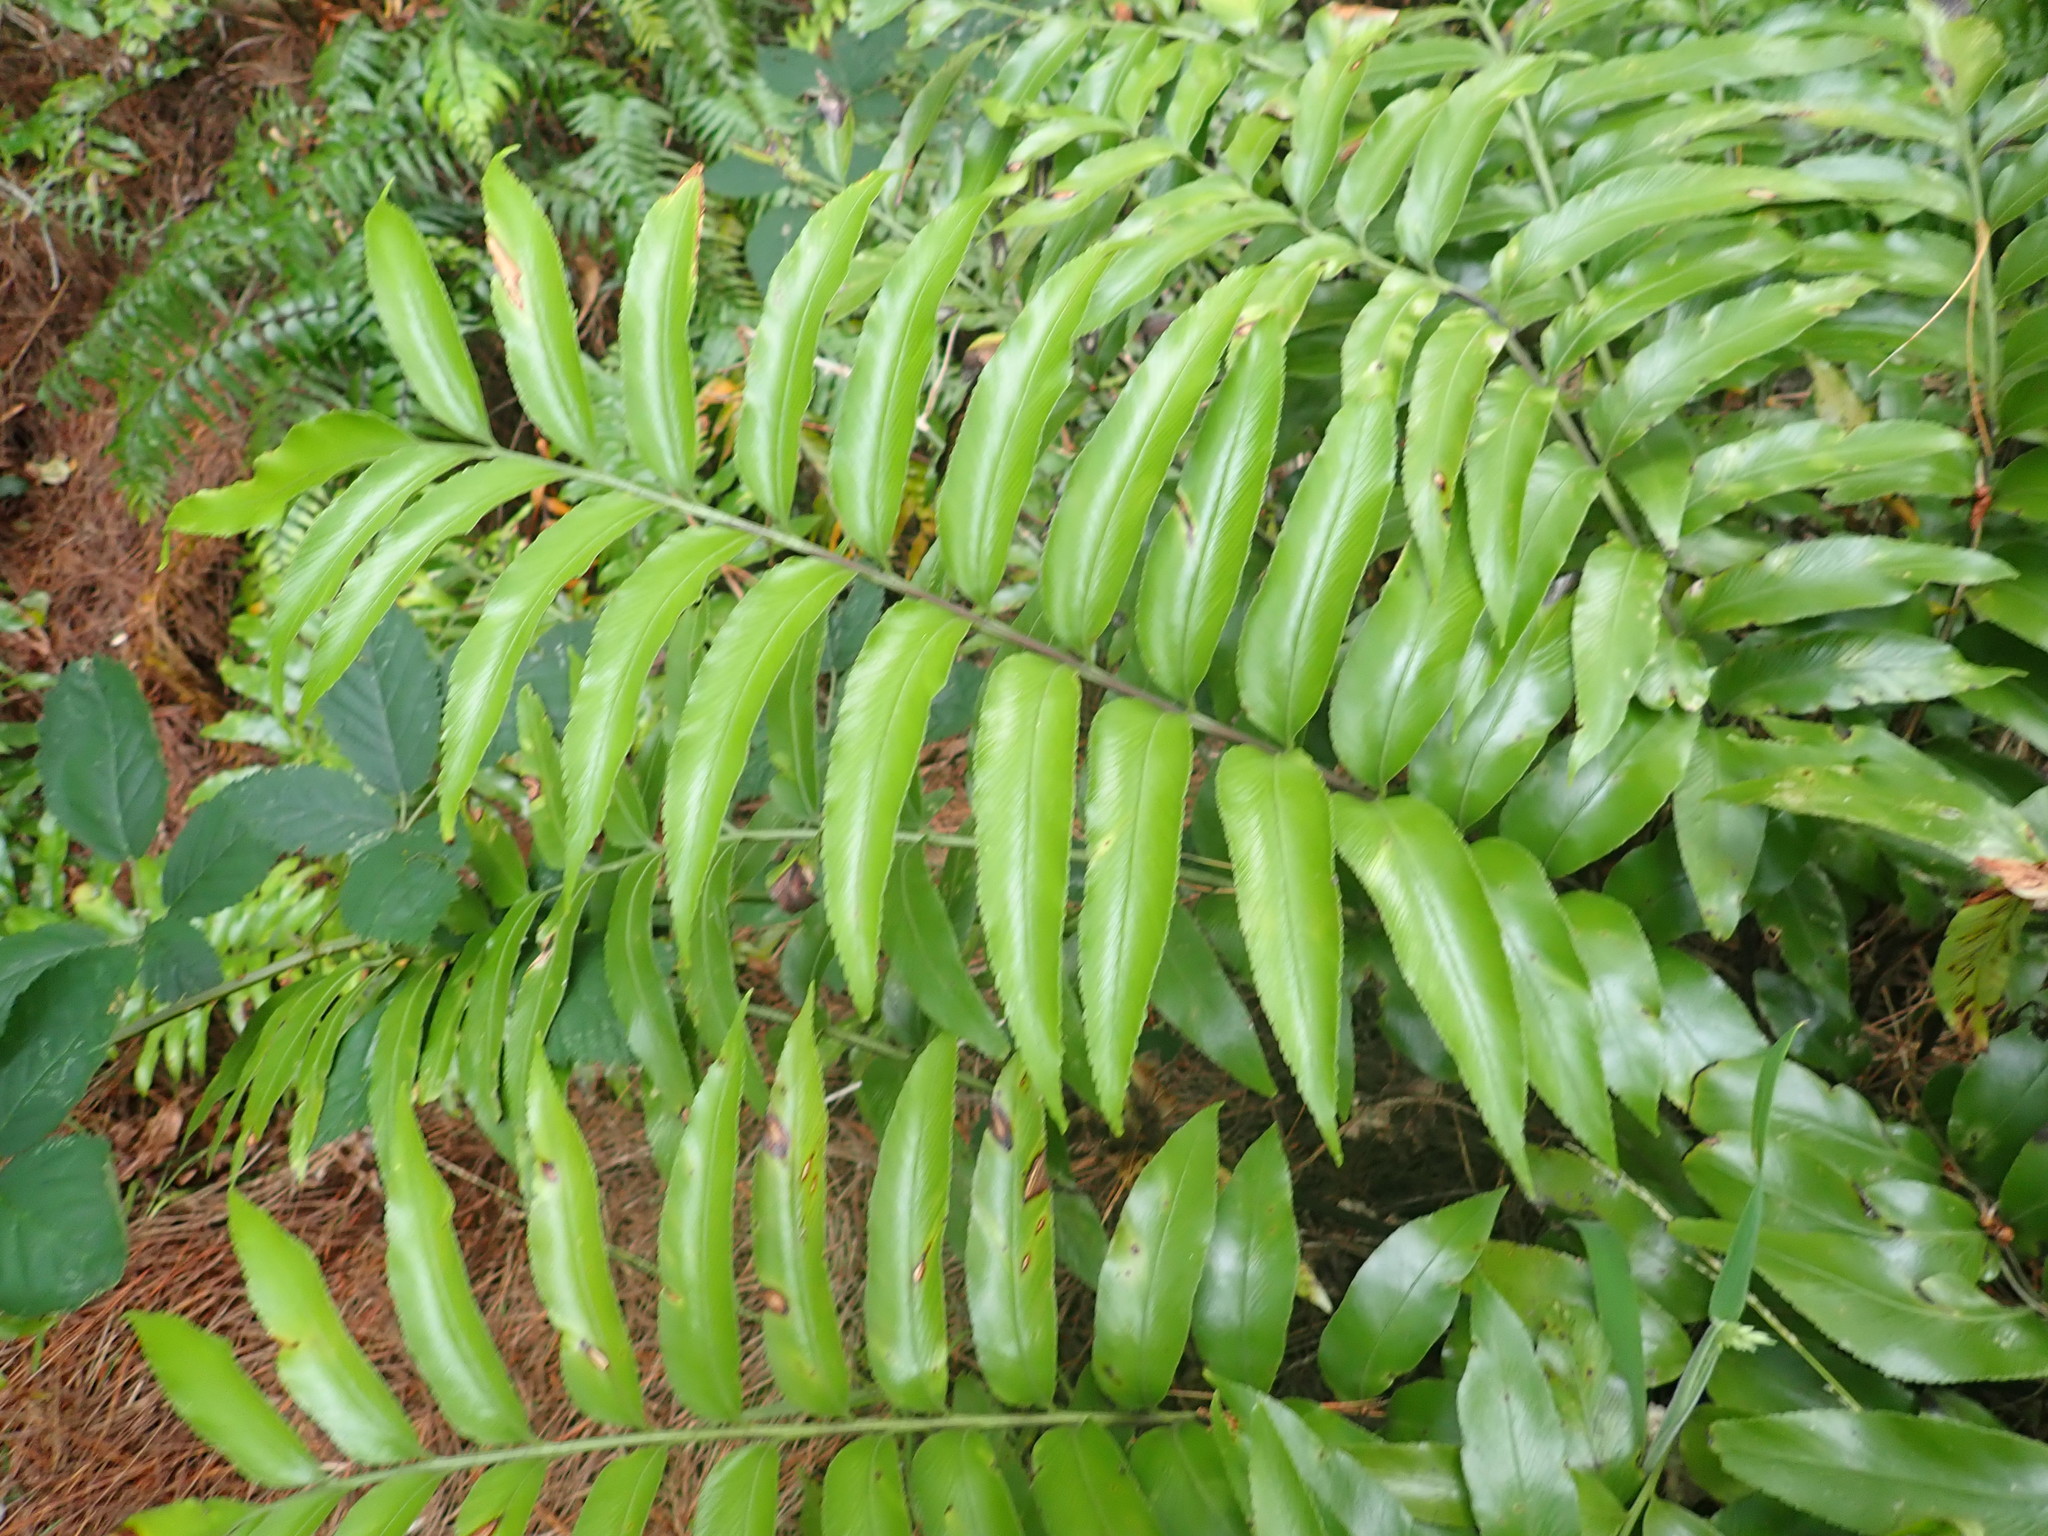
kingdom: Plantae
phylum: Tracheophyta
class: Polypodiopsida
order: Polypodiales
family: Aspleniaceae
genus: Asplenium
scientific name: Asplenium oblongifolium
